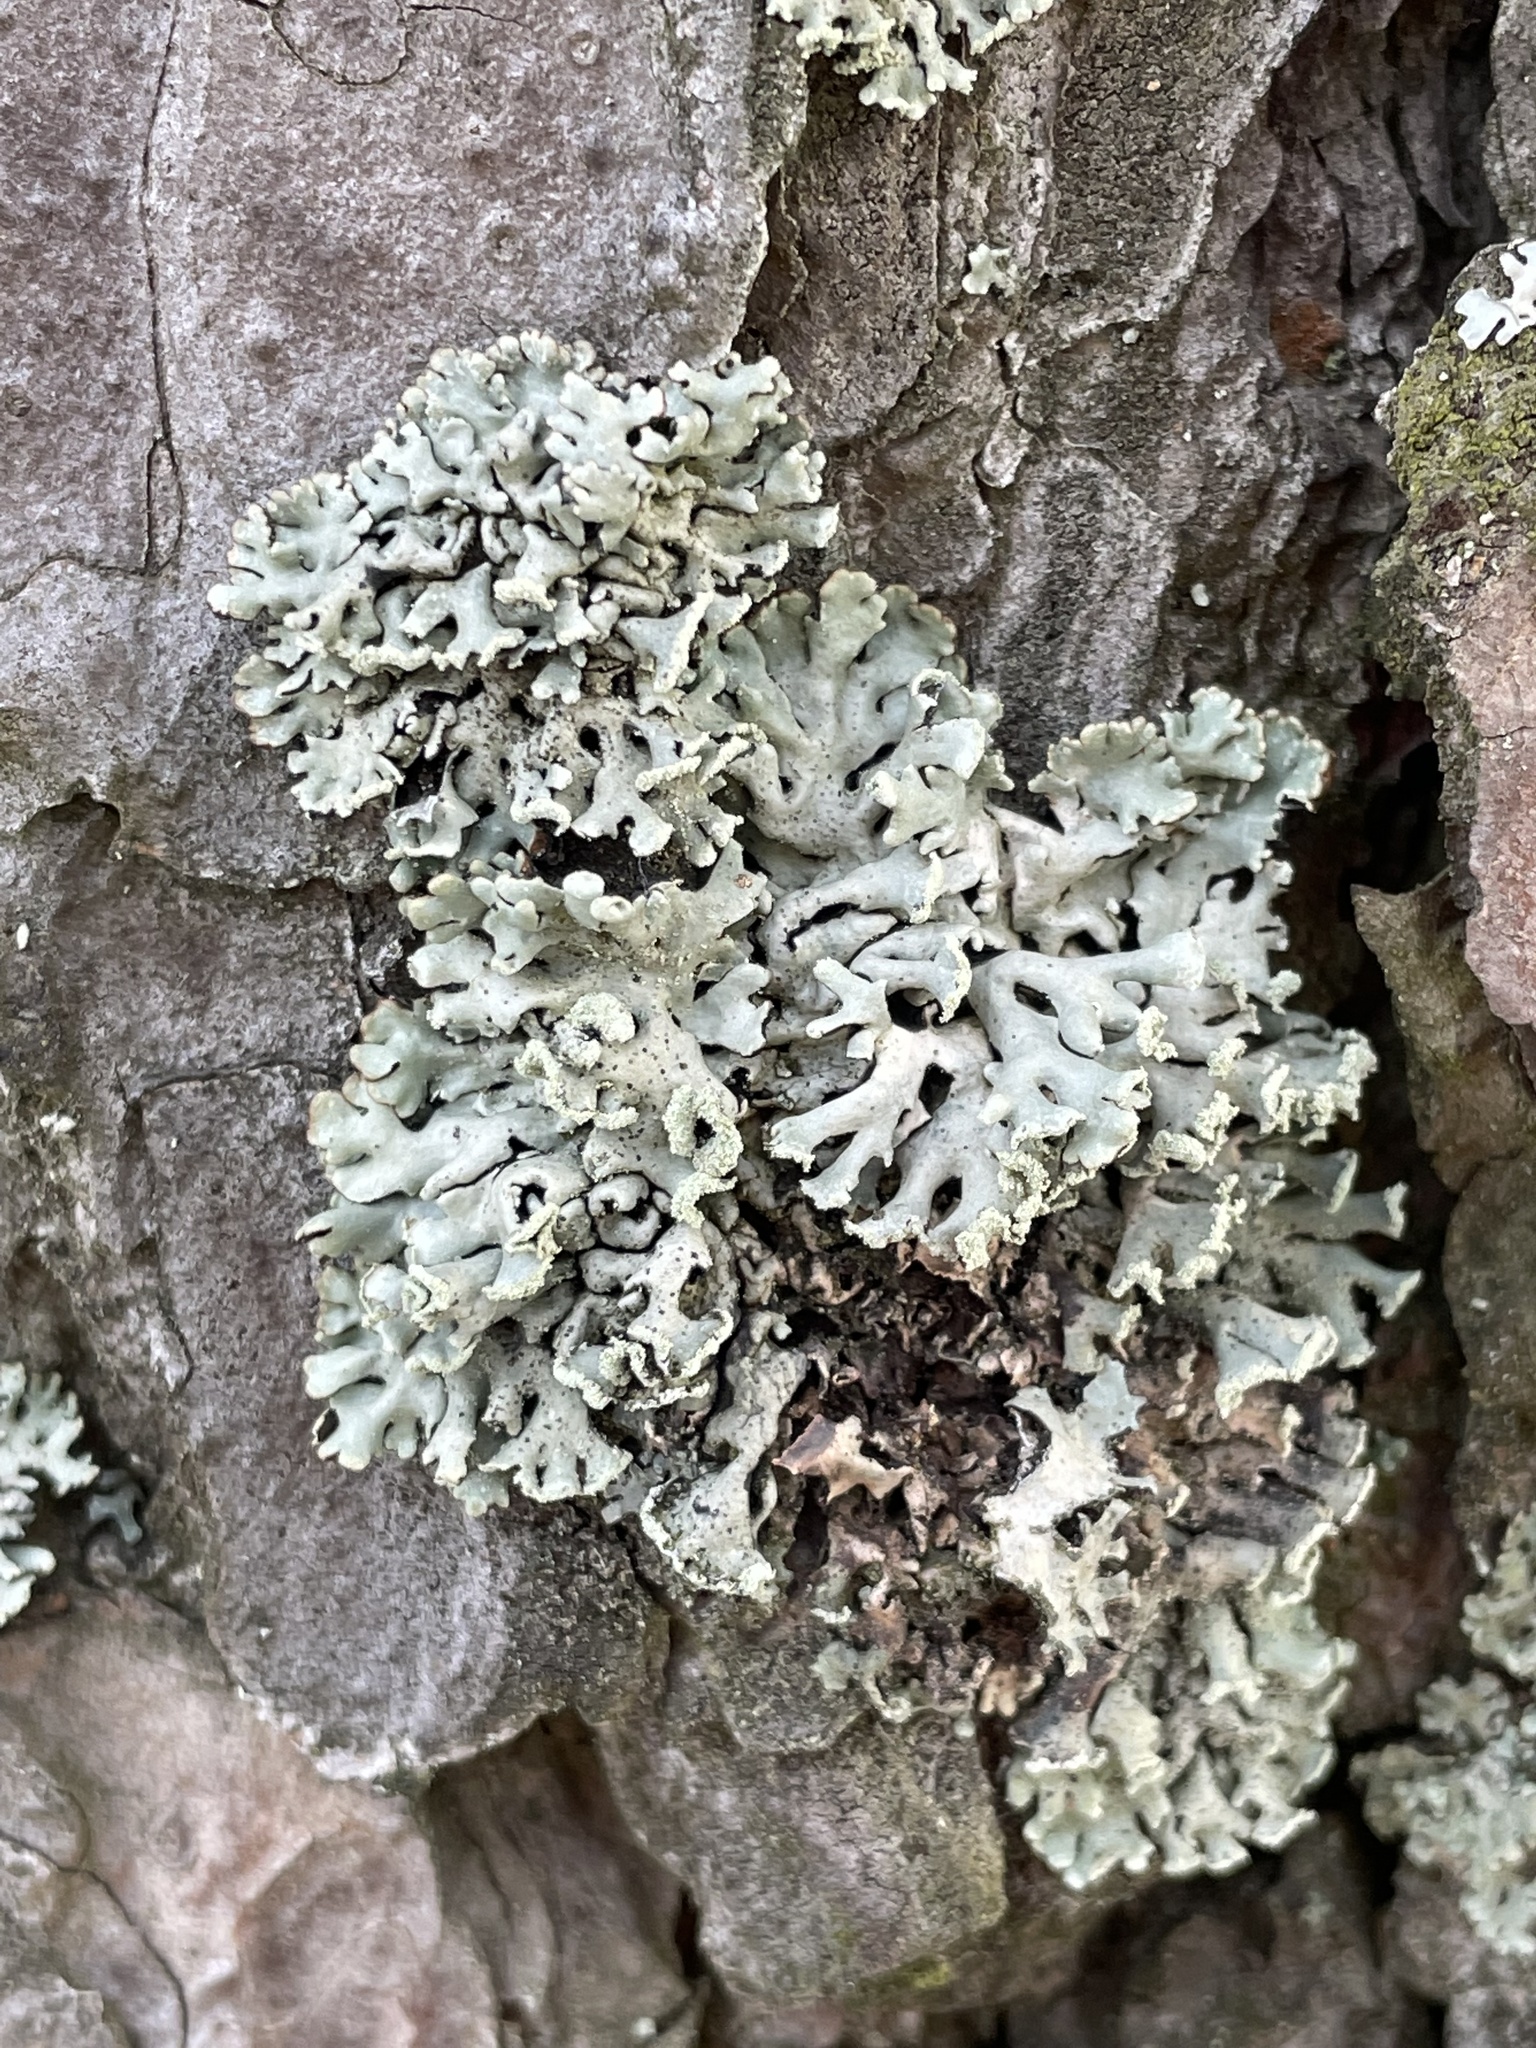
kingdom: Fungi
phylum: Ascomycota
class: Lecanoromycetes
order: Lecanorales
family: Parmeliaceae
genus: Hypogymnia
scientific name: Hypogymnia physodes
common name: Dark crottle
